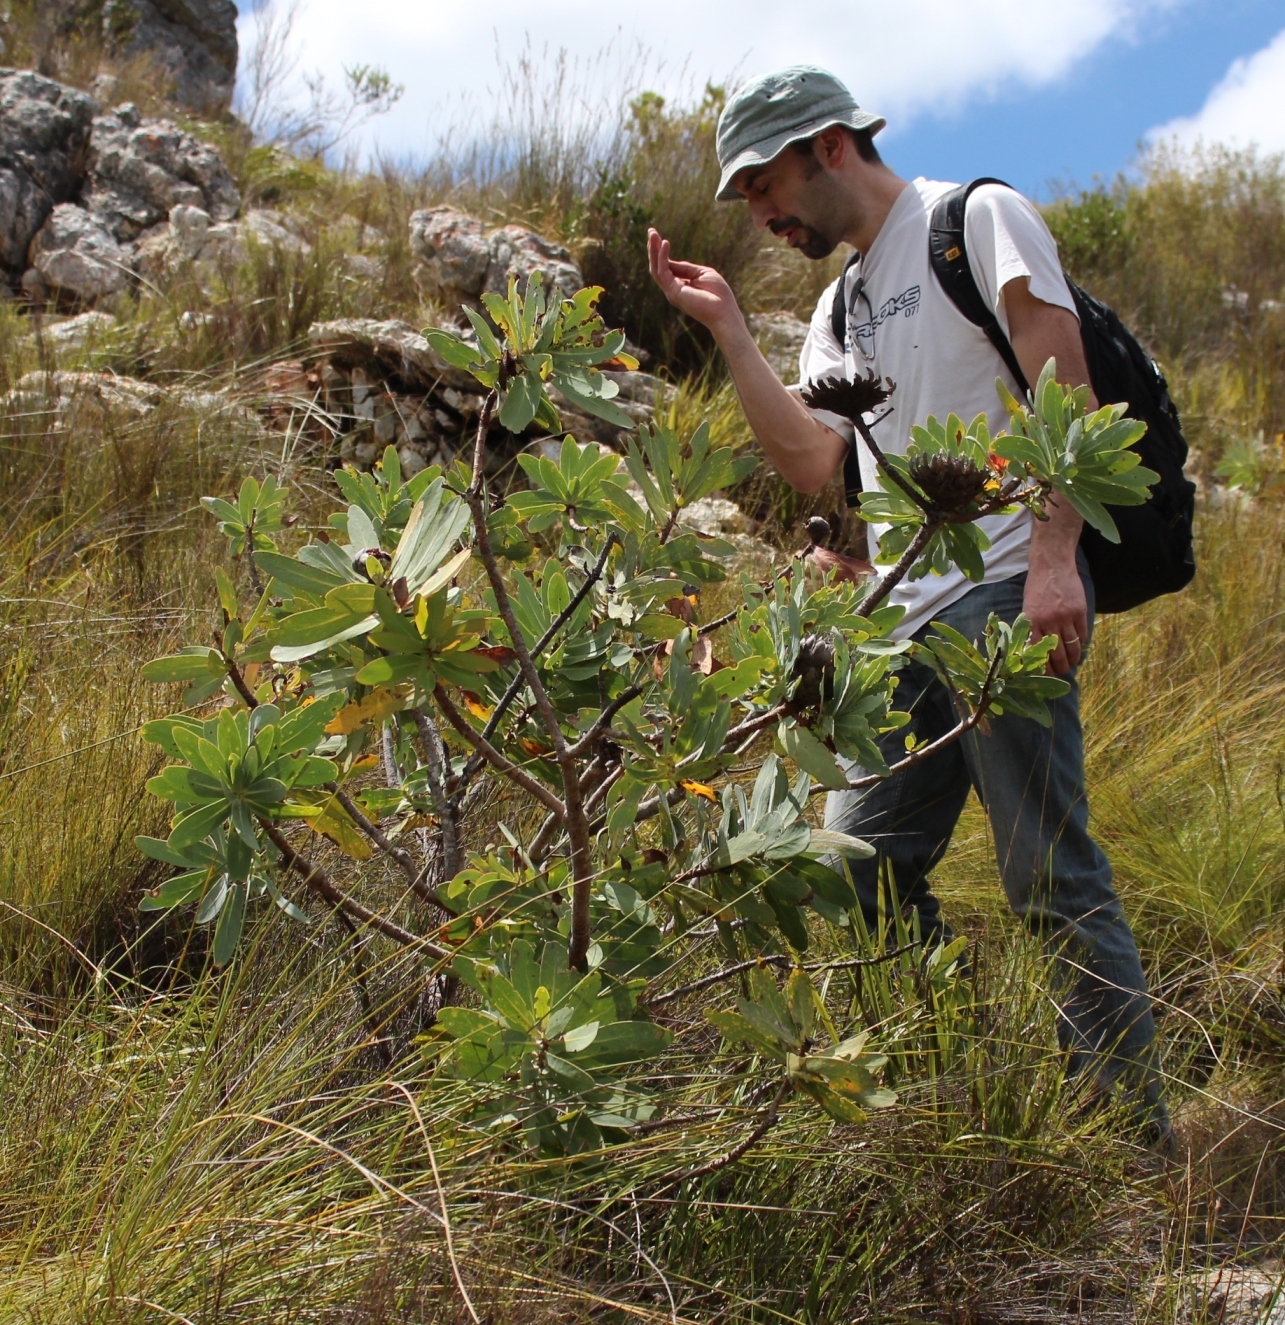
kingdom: Plantae
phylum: Tracheophyta
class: Magnoliopsida
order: Proteales
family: Proteaceae
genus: Protea
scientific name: Protea nitida
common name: Tree protea
